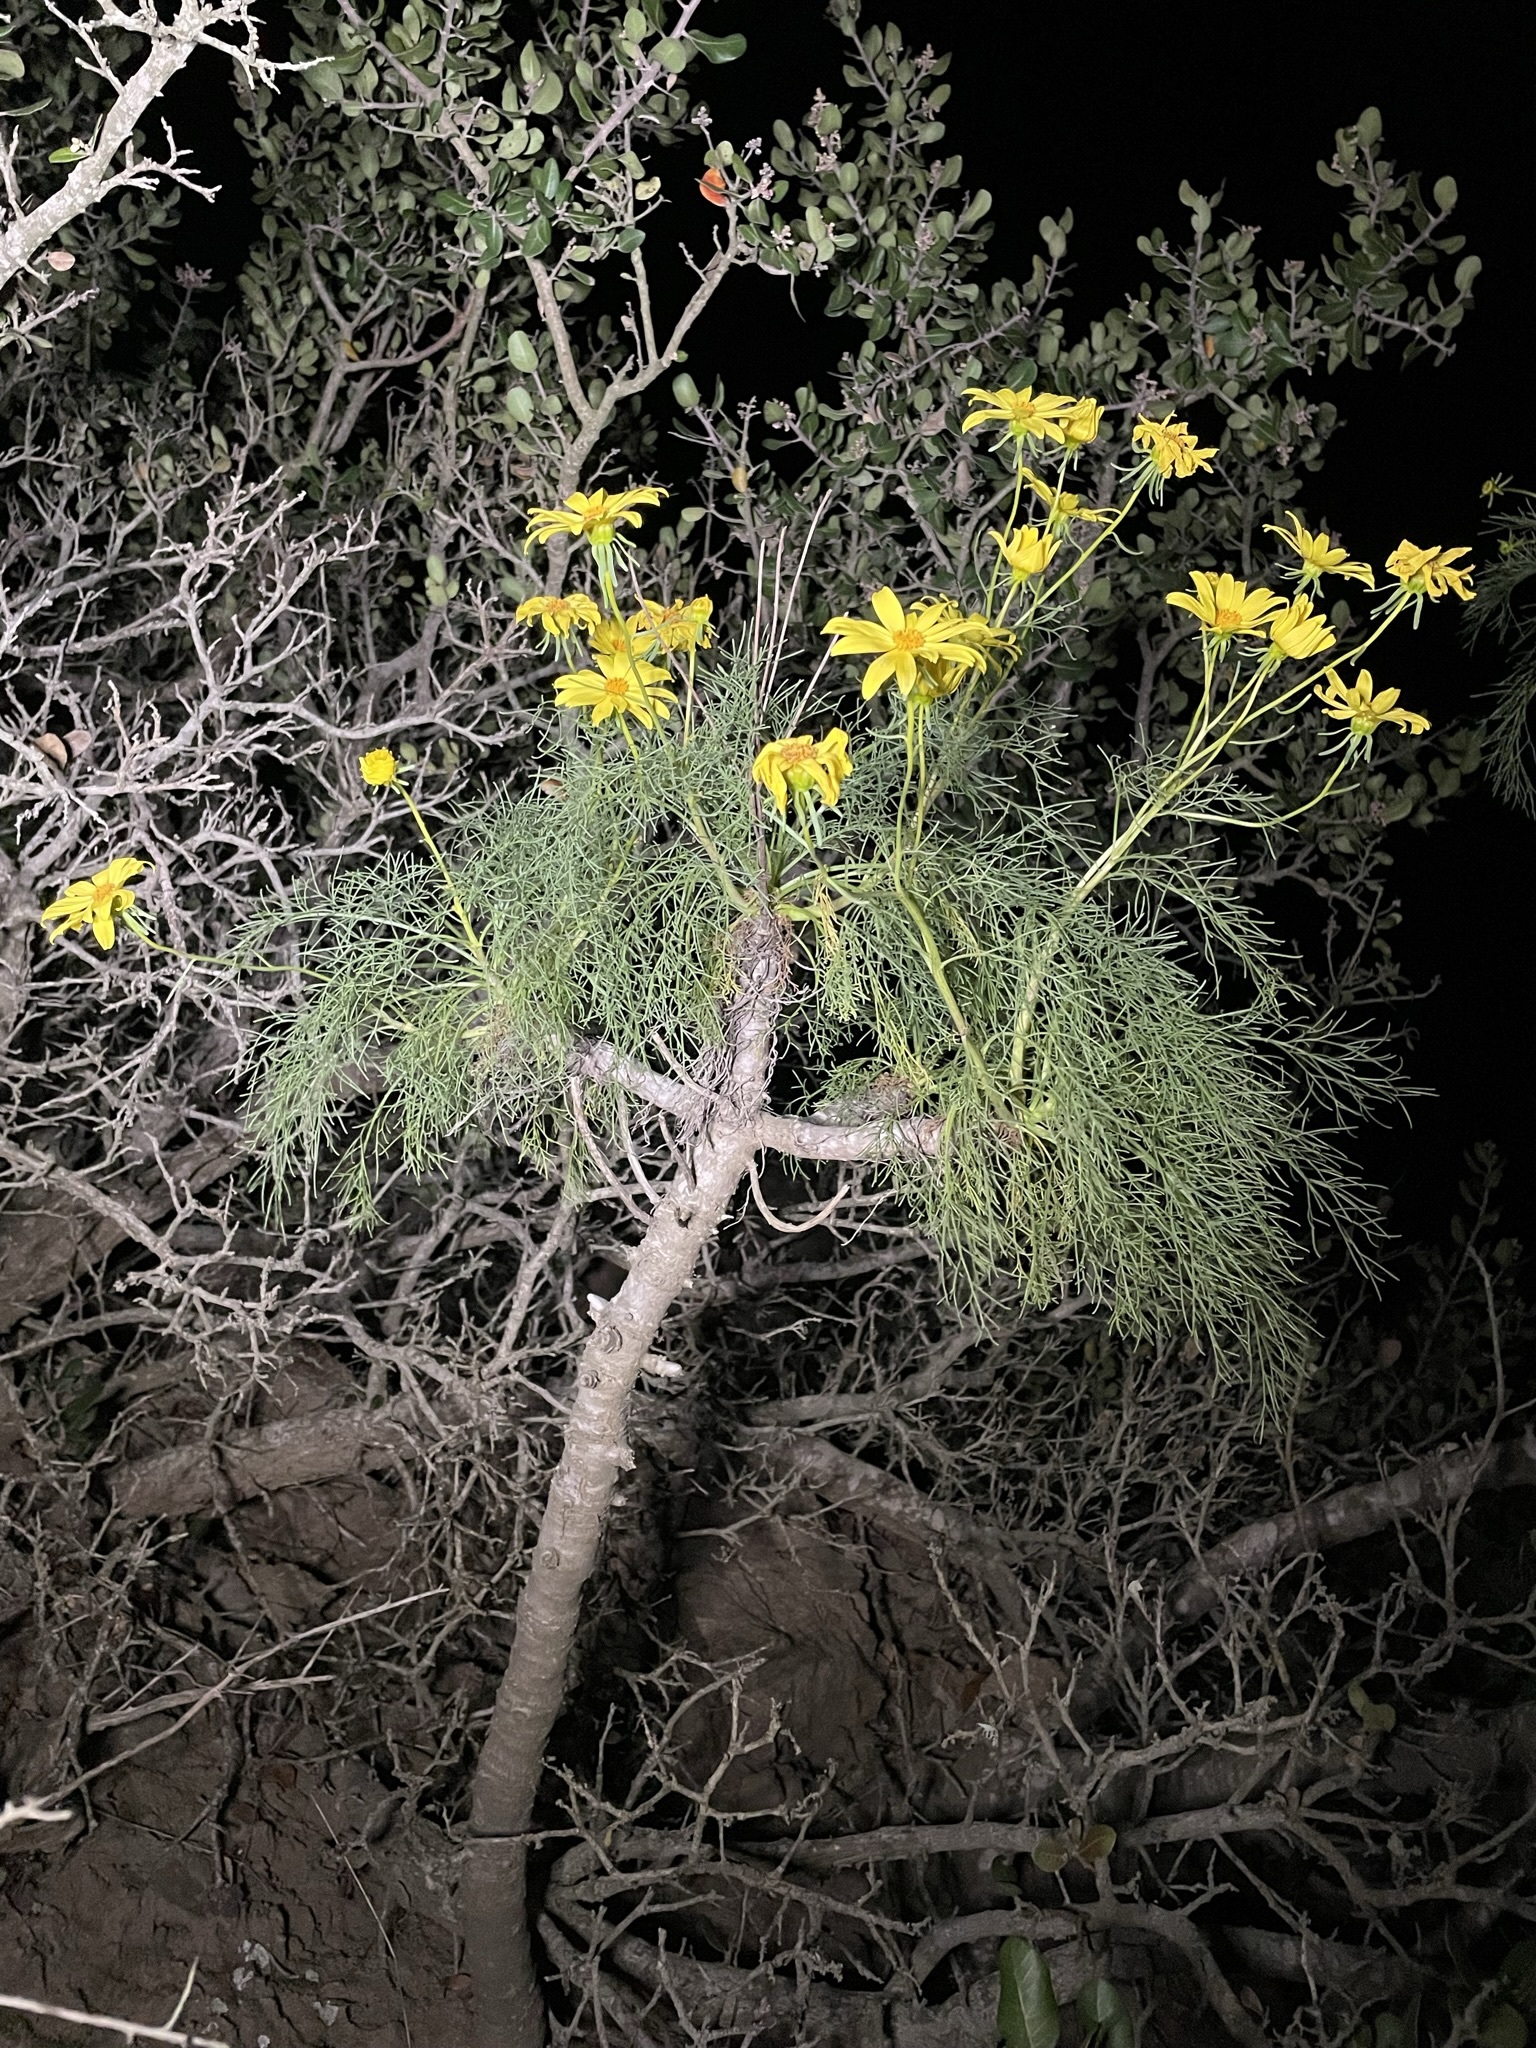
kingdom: Plantae
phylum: Tracheophyta
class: Magnoliopsida
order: Asterales
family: Asteraceae
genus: Coreopsis
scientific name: Coreopsis gigantea
